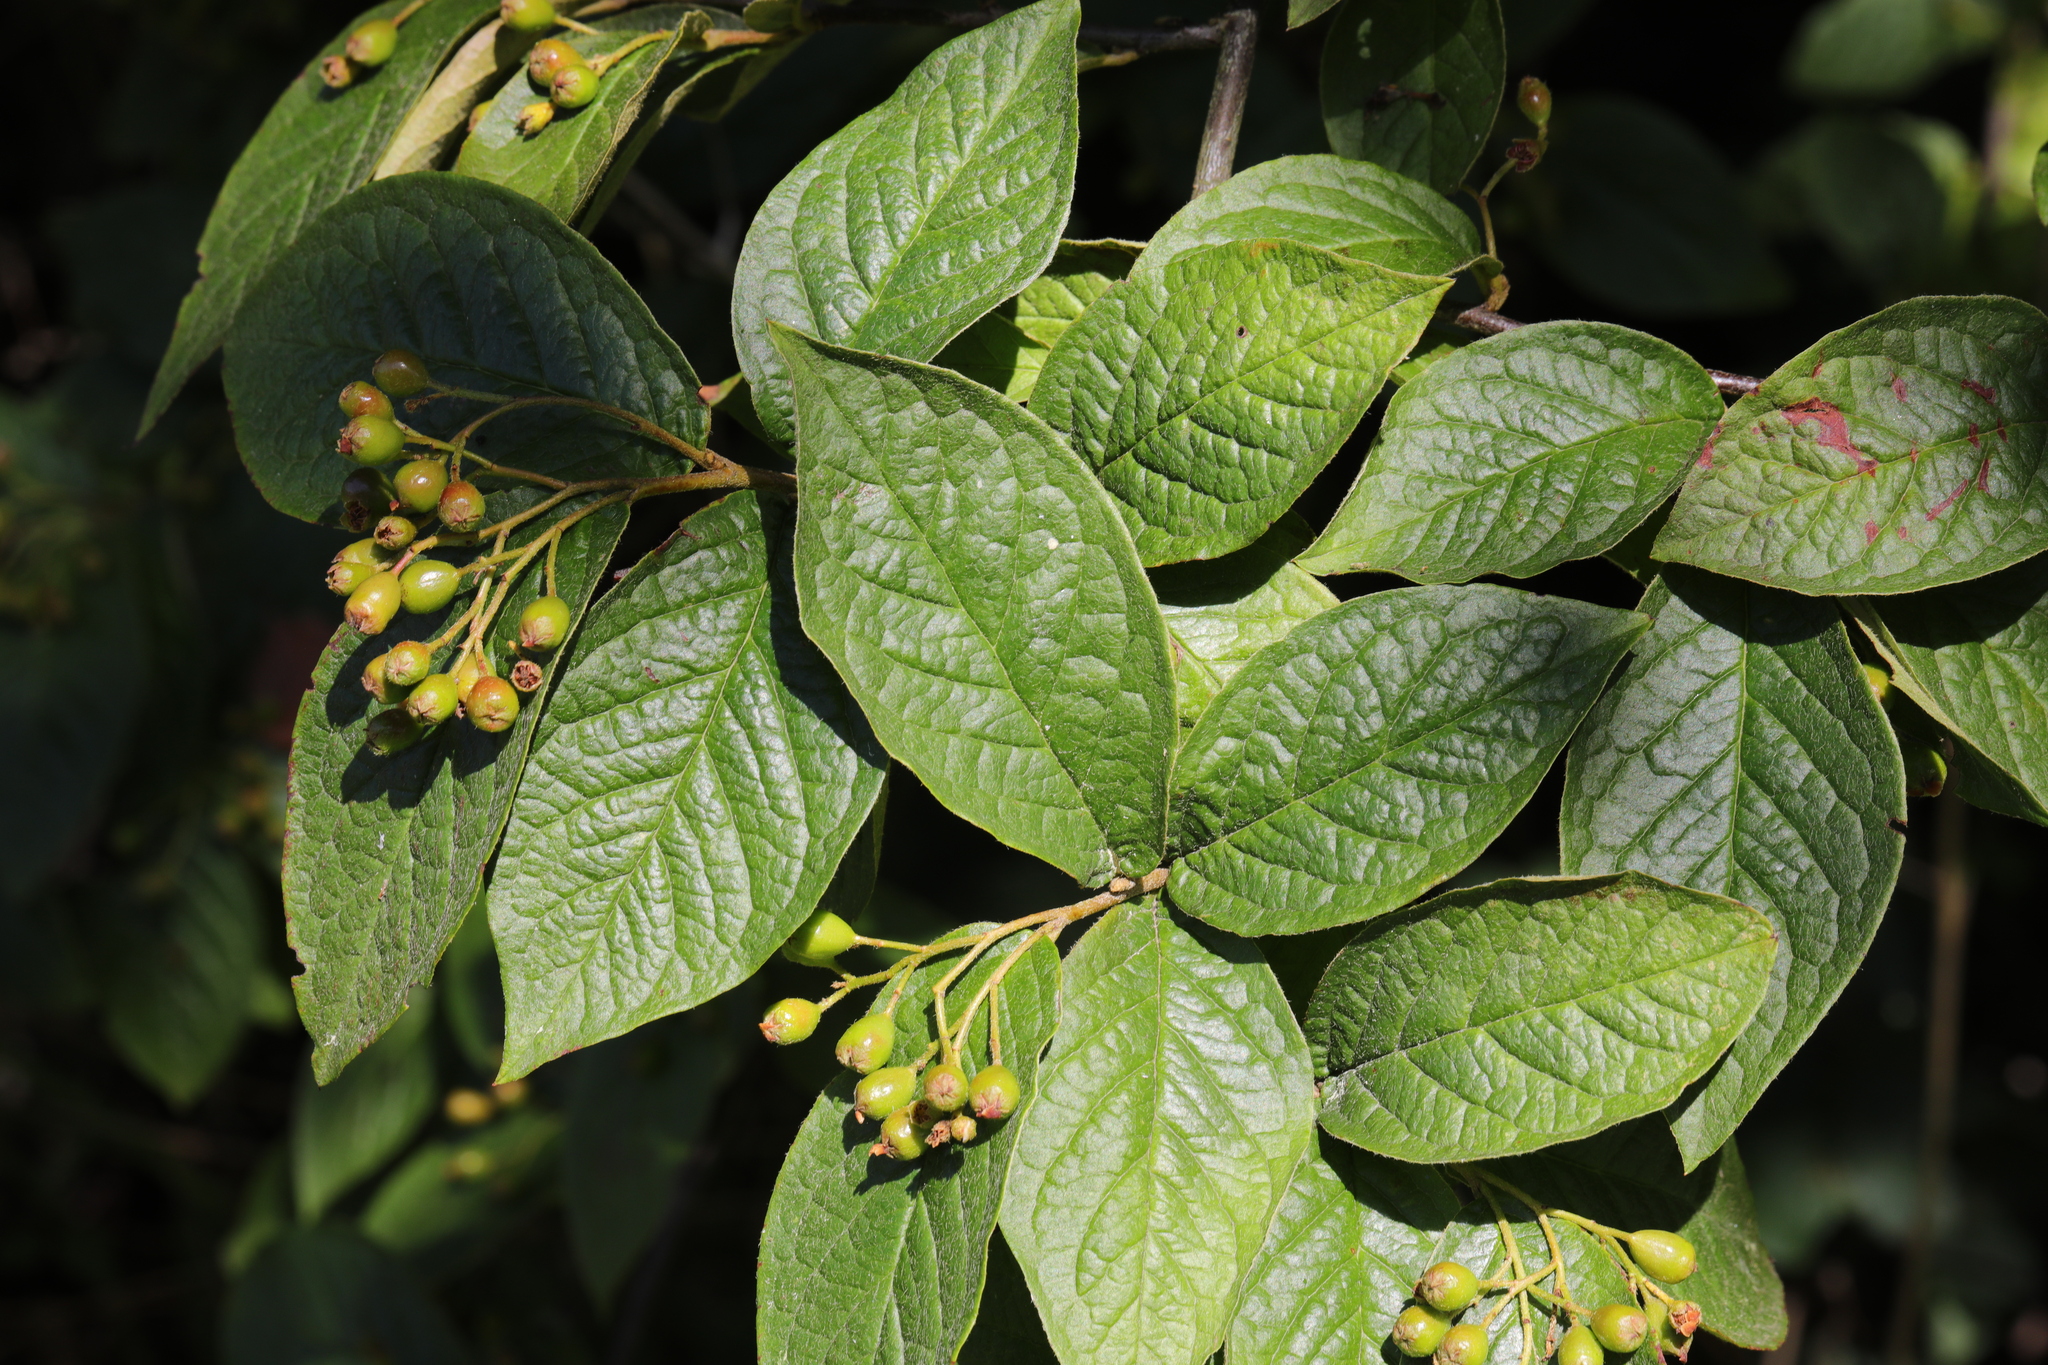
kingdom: Plantae
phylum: Tracheophyta
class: Magnoliopsida
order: Rosales
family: Rosaceae
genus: Cotoneaster
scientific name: Cotoneaster bullatus
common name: Hollyberry cotoneaster
